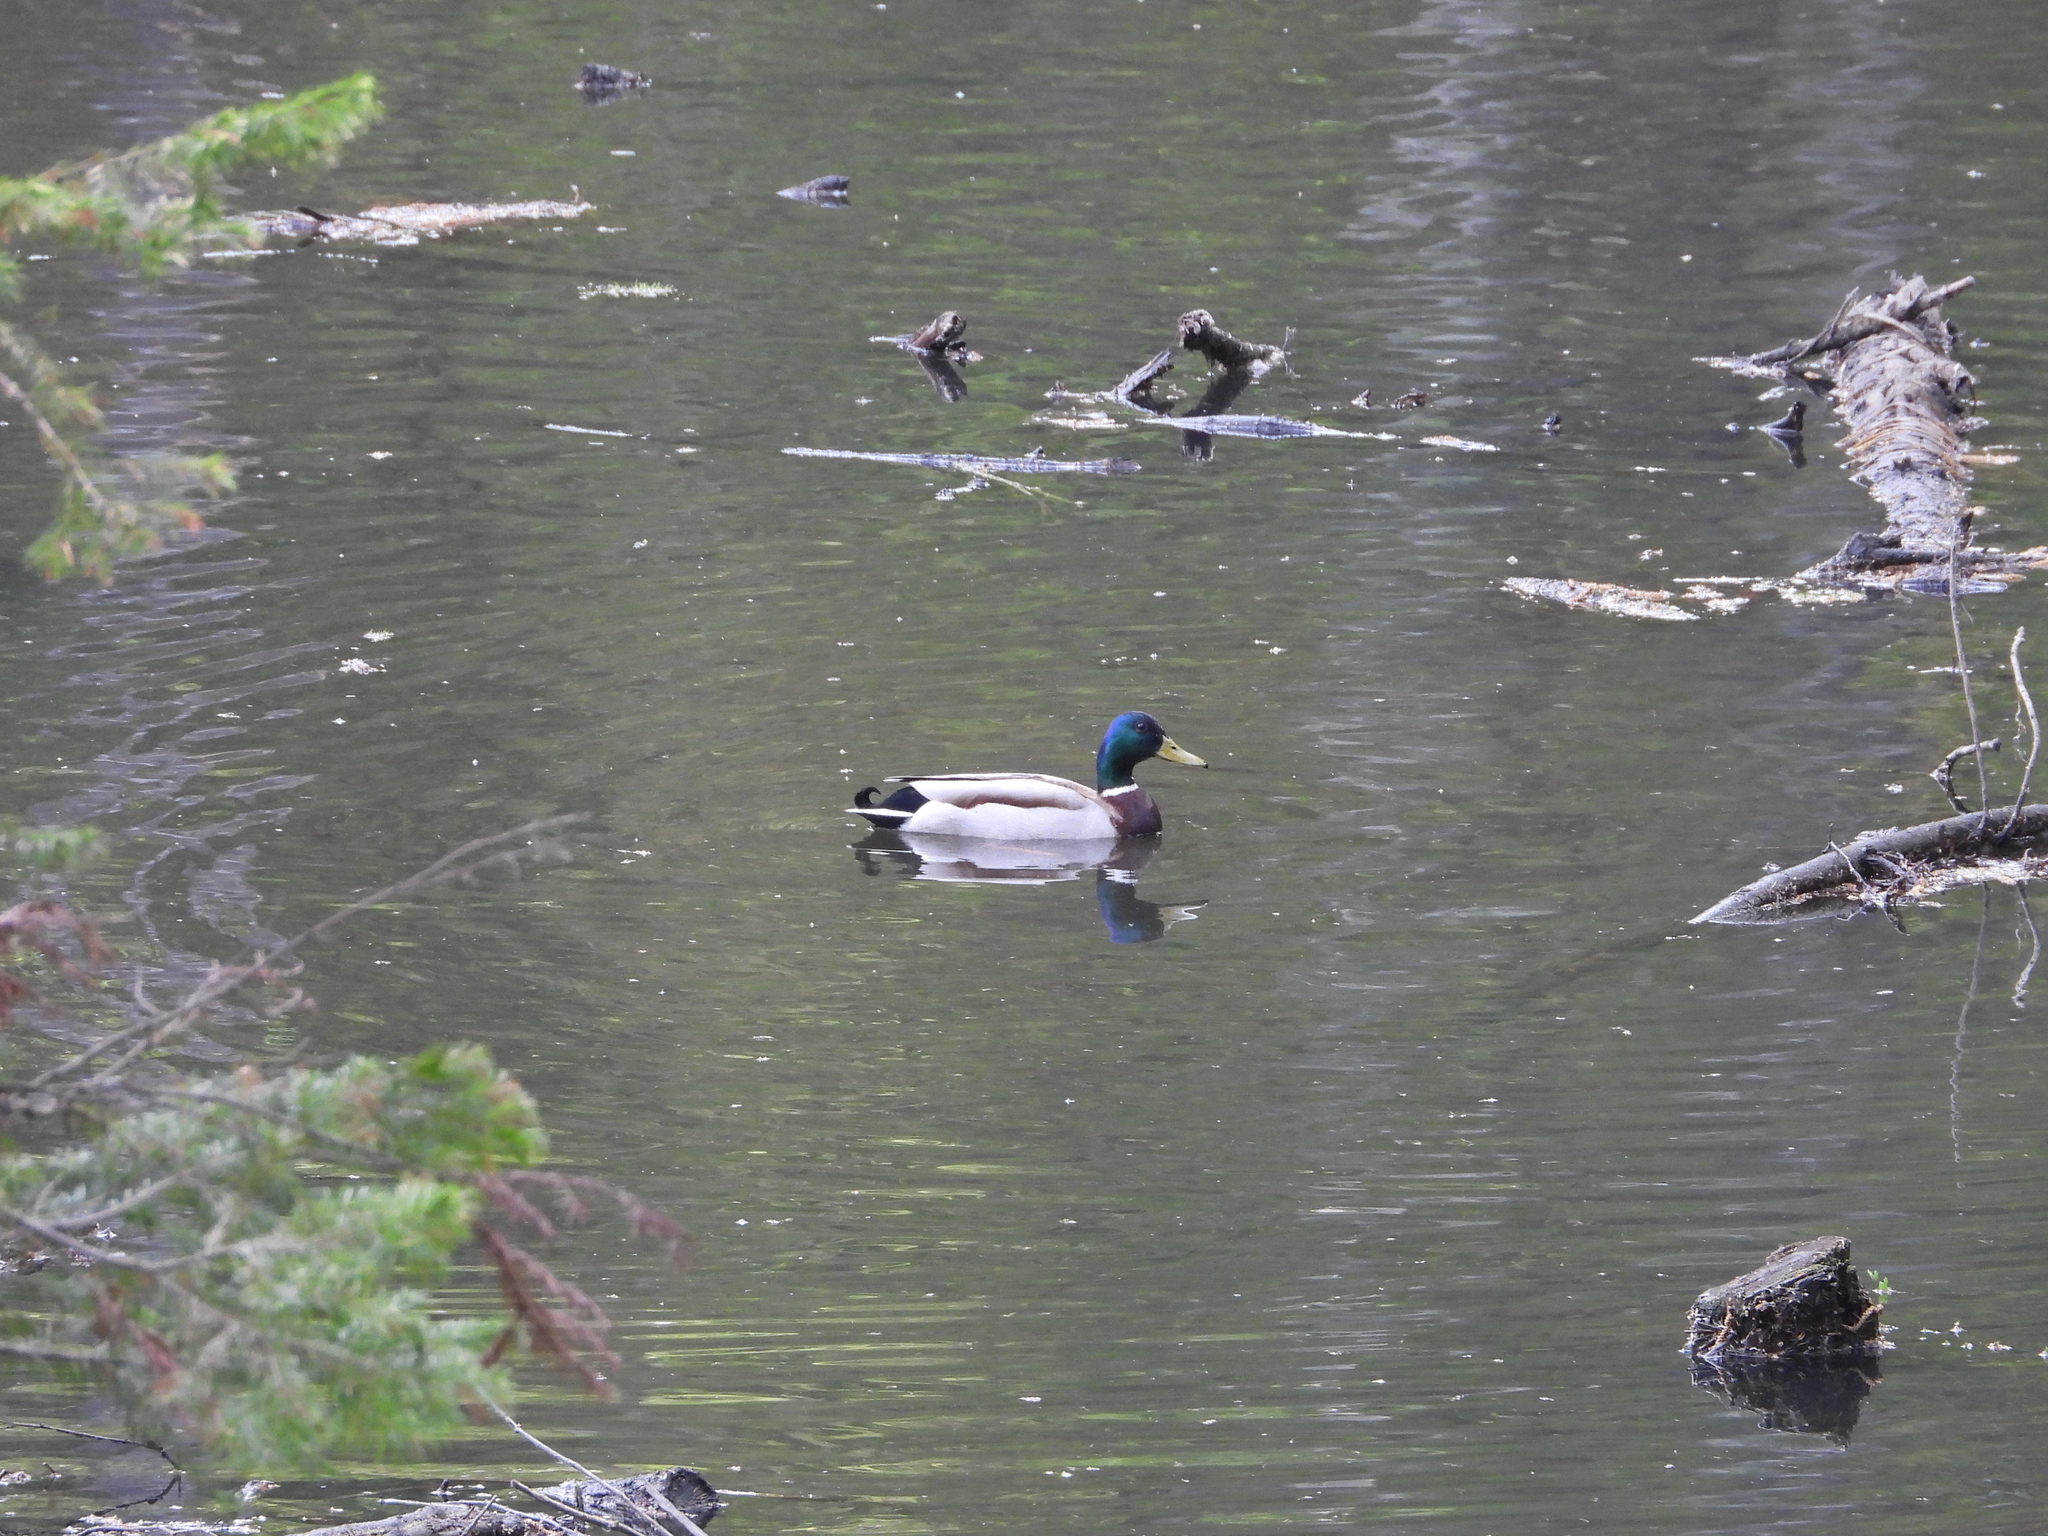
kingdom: Animalia
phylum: Chordata
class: Aves
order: Anseriformes
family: Anatidae
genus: Anas
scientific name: Anas platyrhynchos
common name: Mallard
